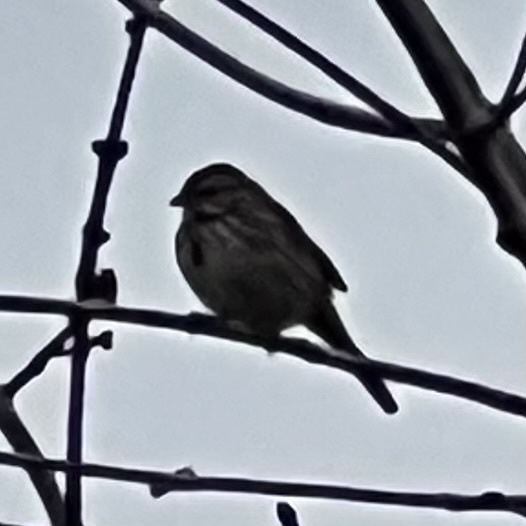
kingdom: Animalia
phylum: Chordata
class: Aves
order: Passeriformes
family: Passerellidae
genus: Melospiza
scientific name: Melospiza melodia
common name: Song sparrow
